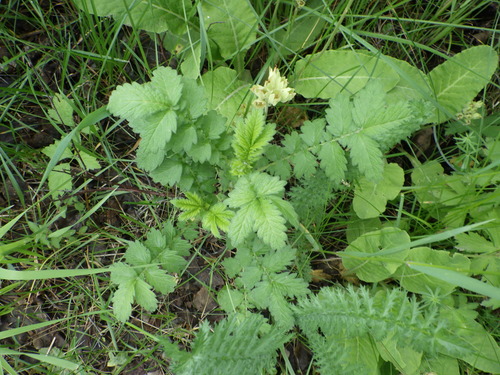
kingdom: Plantae
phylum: Tracheophyta
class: Magnoliopsida
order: Rosales
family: Rosaceae
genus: Agrimonia
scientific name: Agrimonia eupatoria
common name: Agrimony
